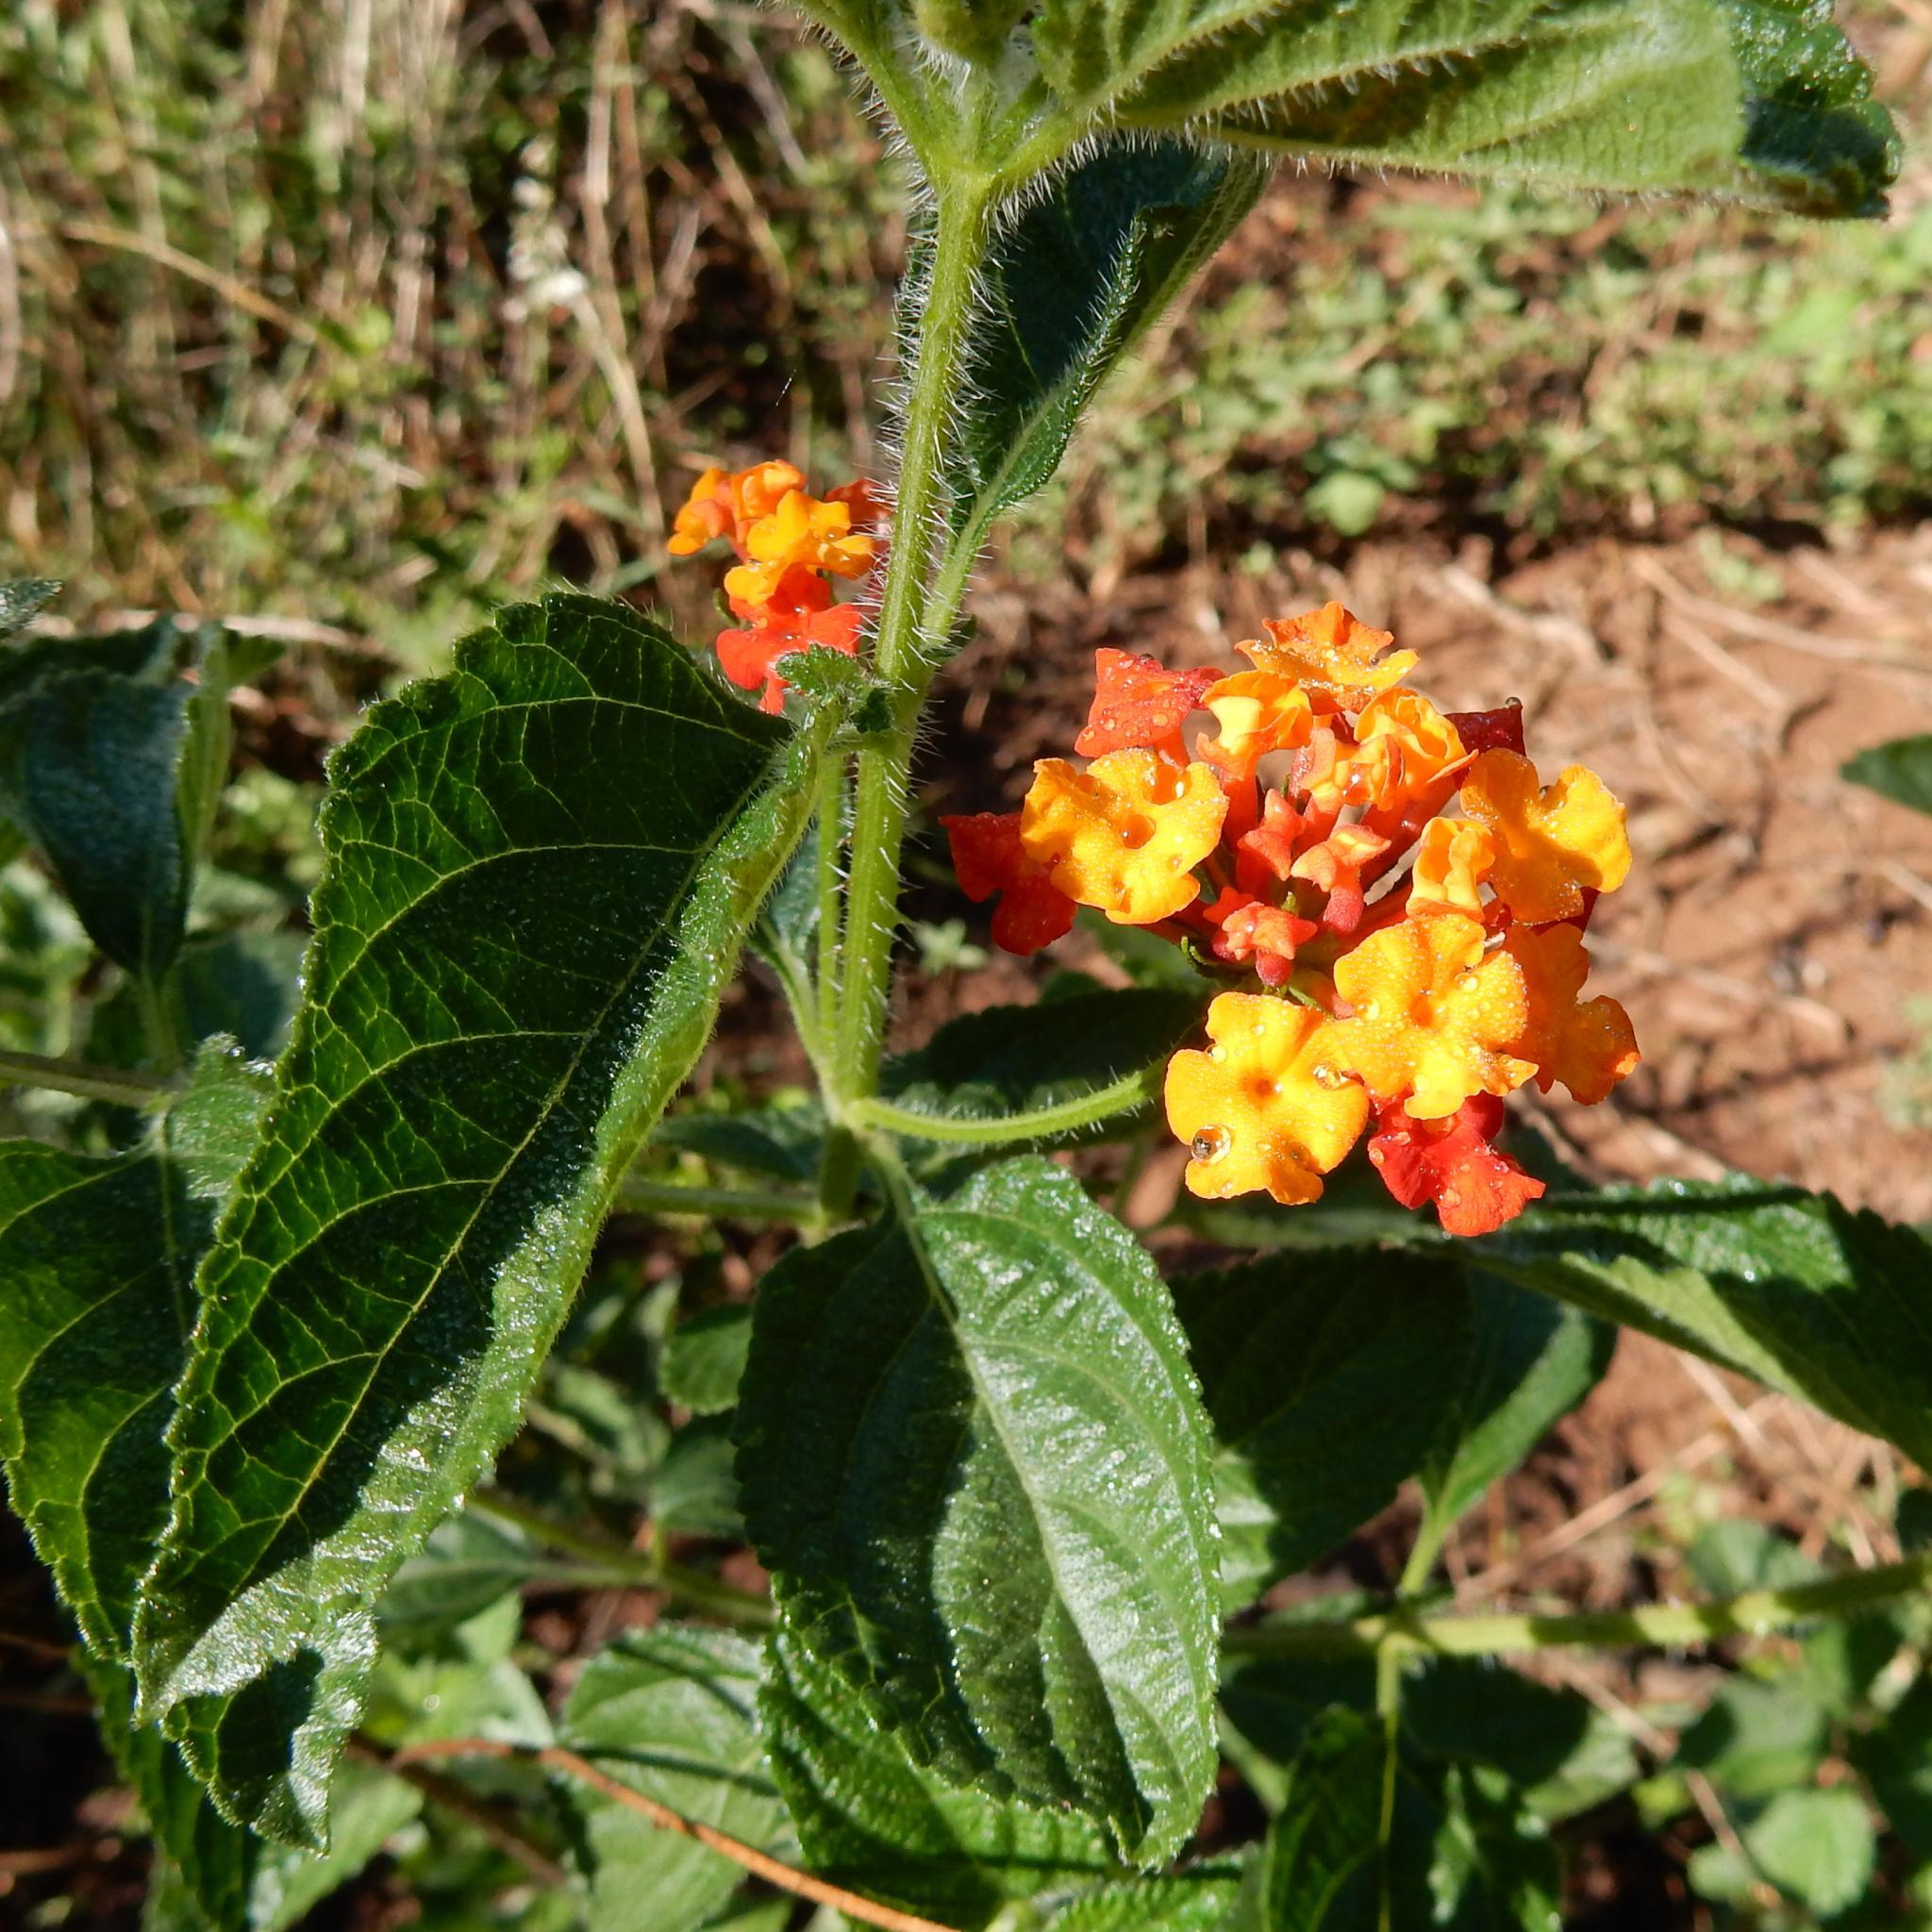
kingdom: Plantae
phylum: Tracheophyta
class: Magnoliopsida
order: Lamiales
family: Verbenaceae
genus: Lantana
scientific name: Lantana camara
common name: Lantana
